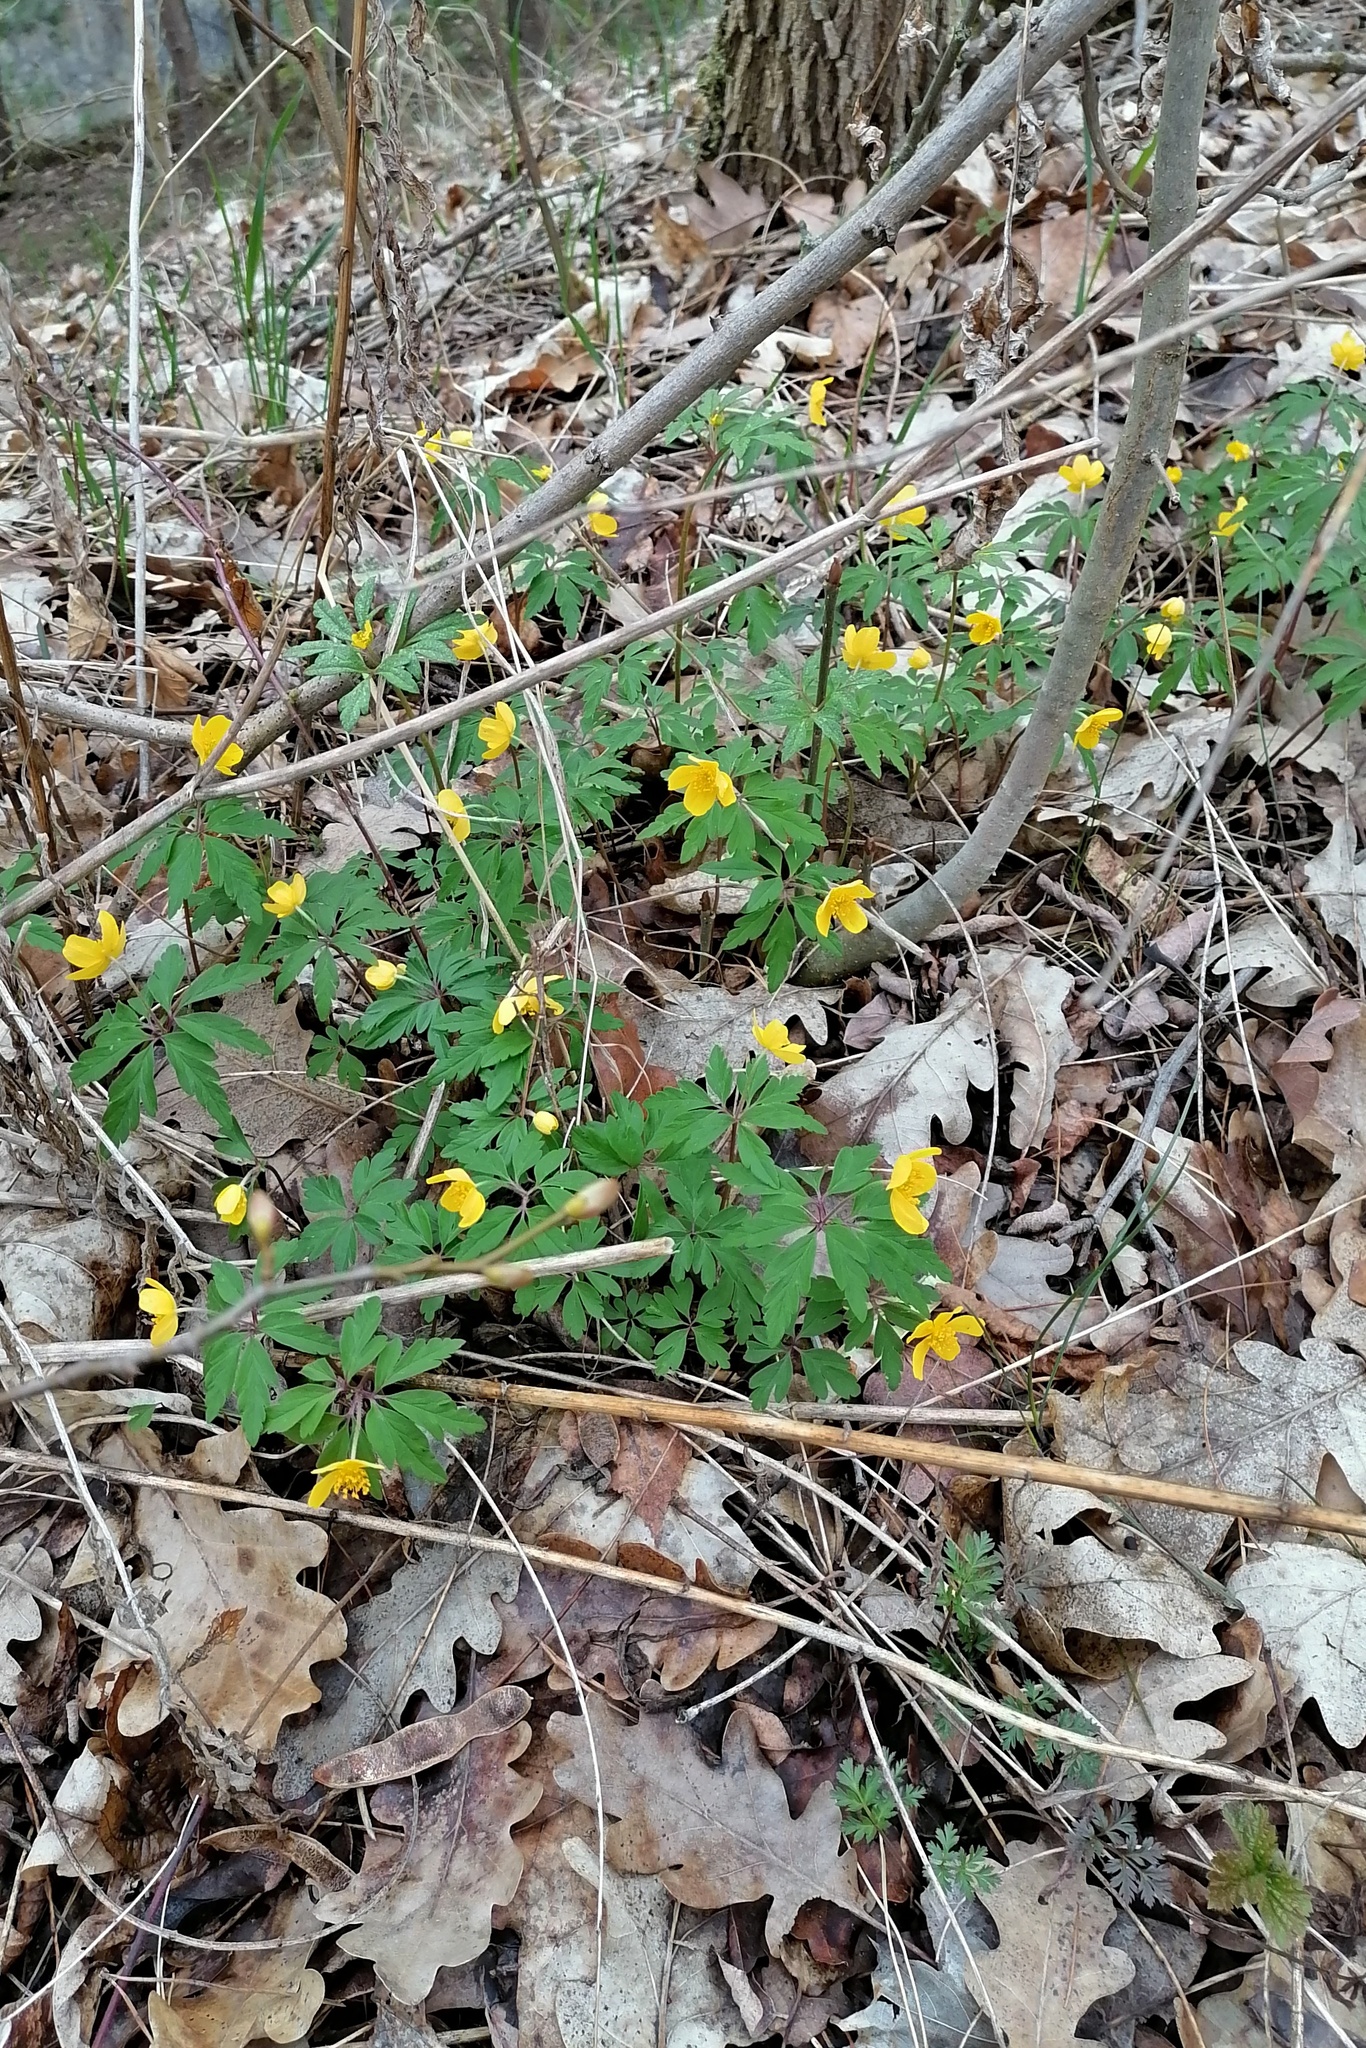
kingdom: Plantae
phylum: Tracheophyta
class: Magnoliopsida
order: Ranunculales
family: Ranunculaceae
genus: Anemone
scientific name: Anemone ranunculoides
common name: Yellow anemone
